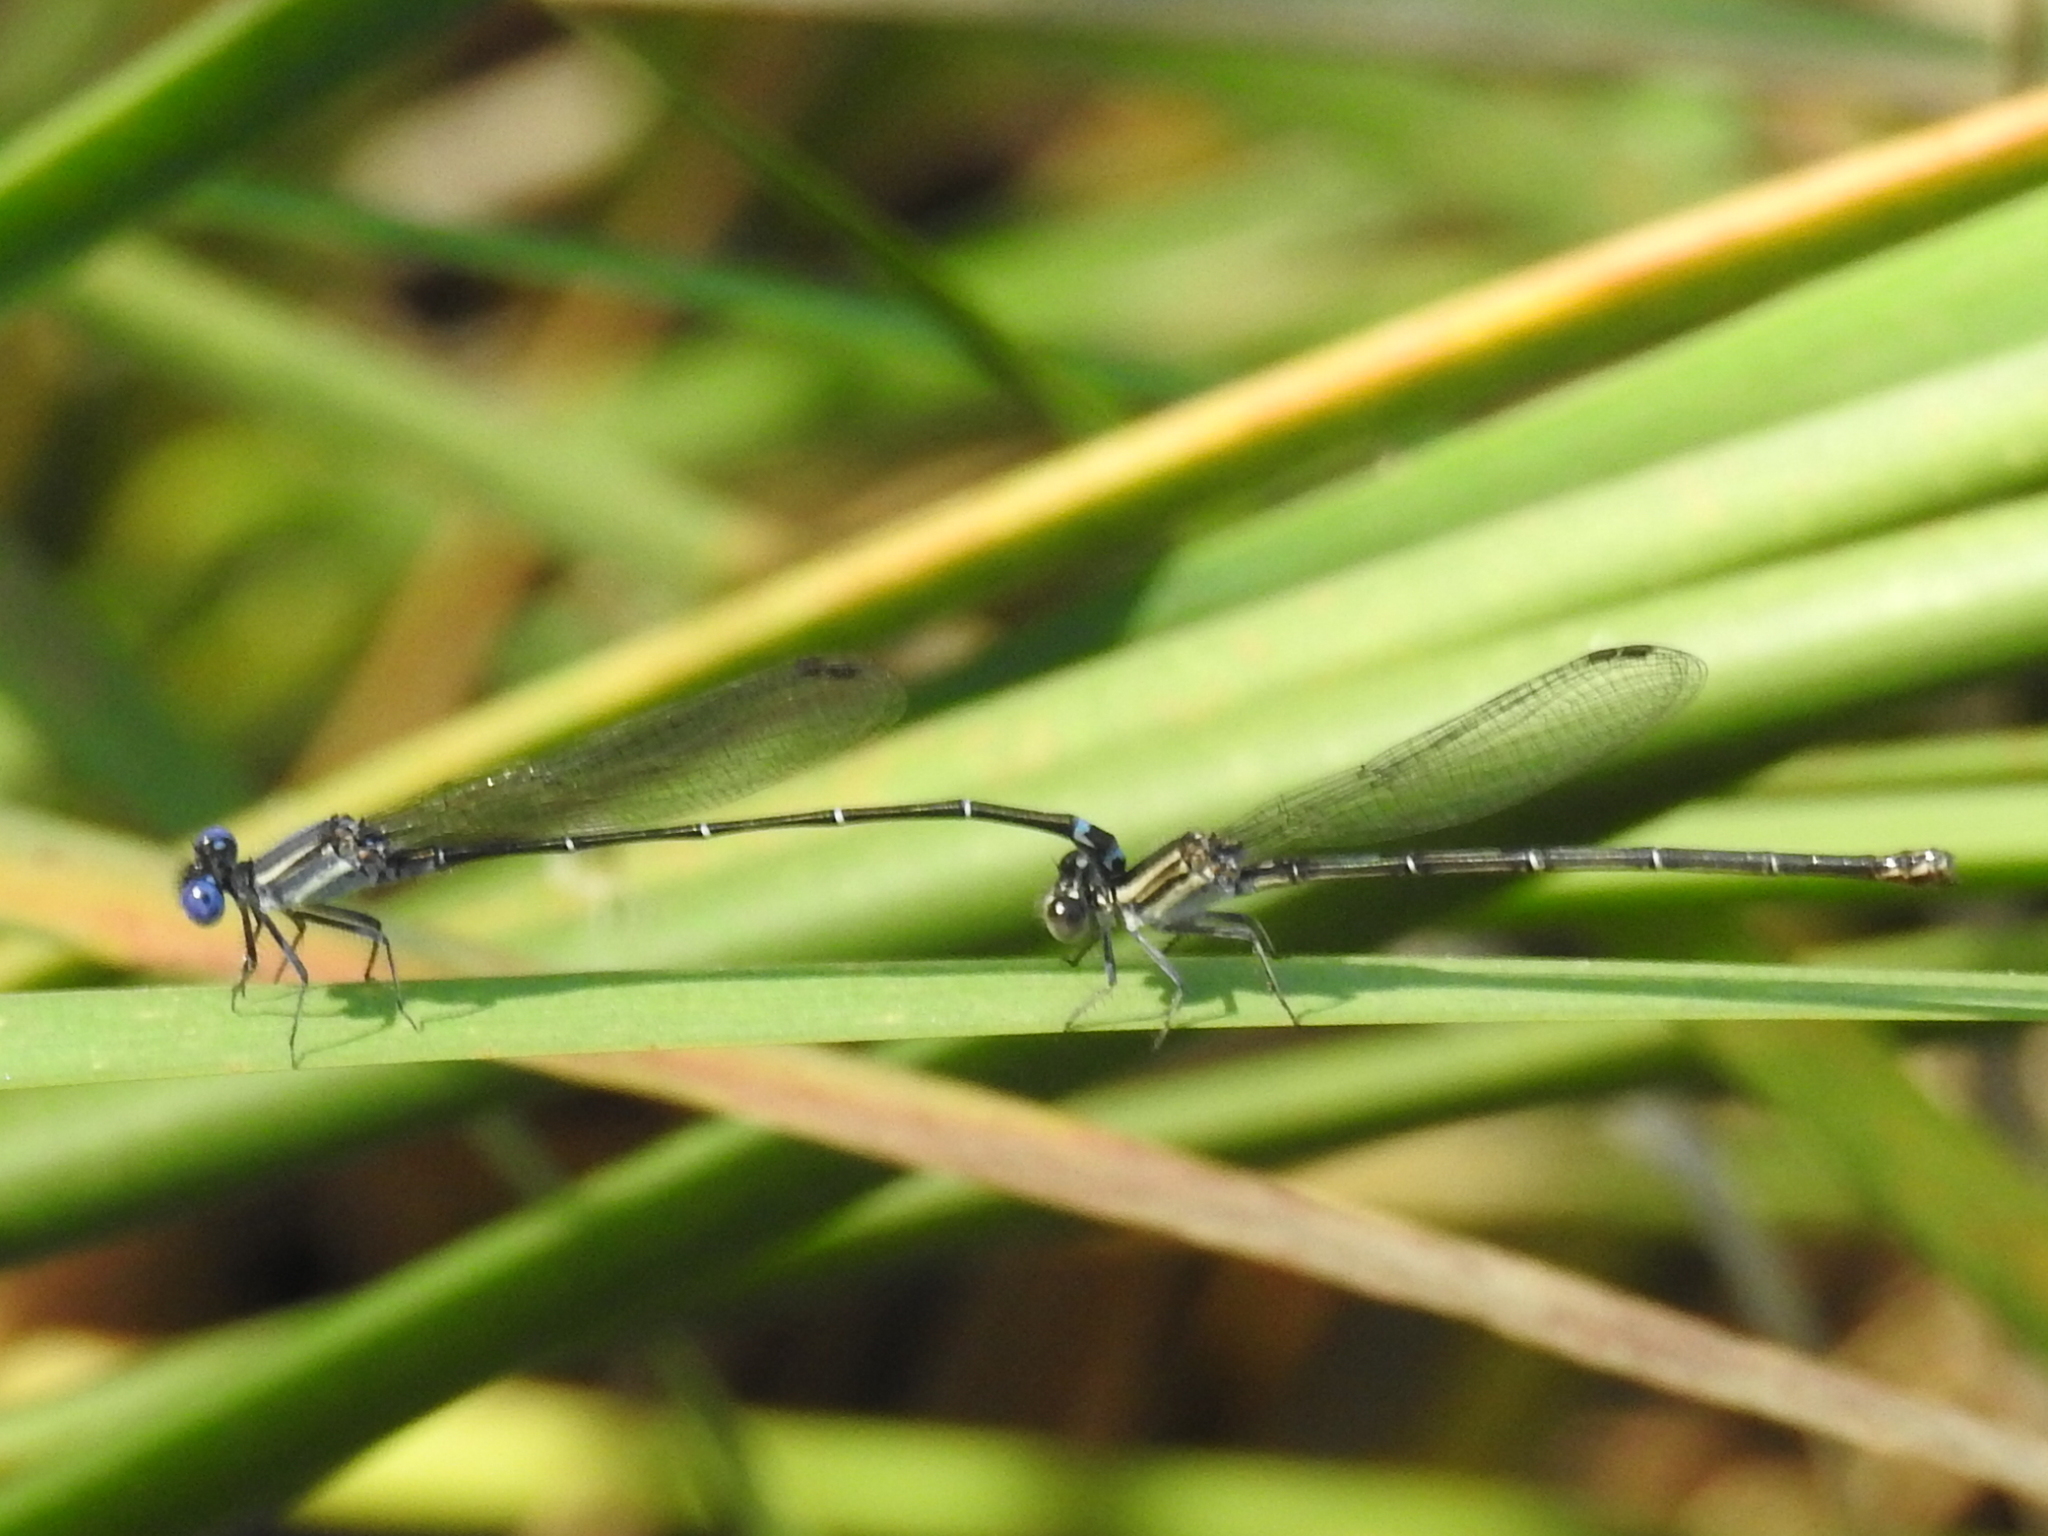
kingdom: Animalia
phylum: Arthropoda
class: Insecta
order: Odonata
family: Coenagrionidae
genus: Argia
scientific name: Argia translata
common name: Dusky dancer
